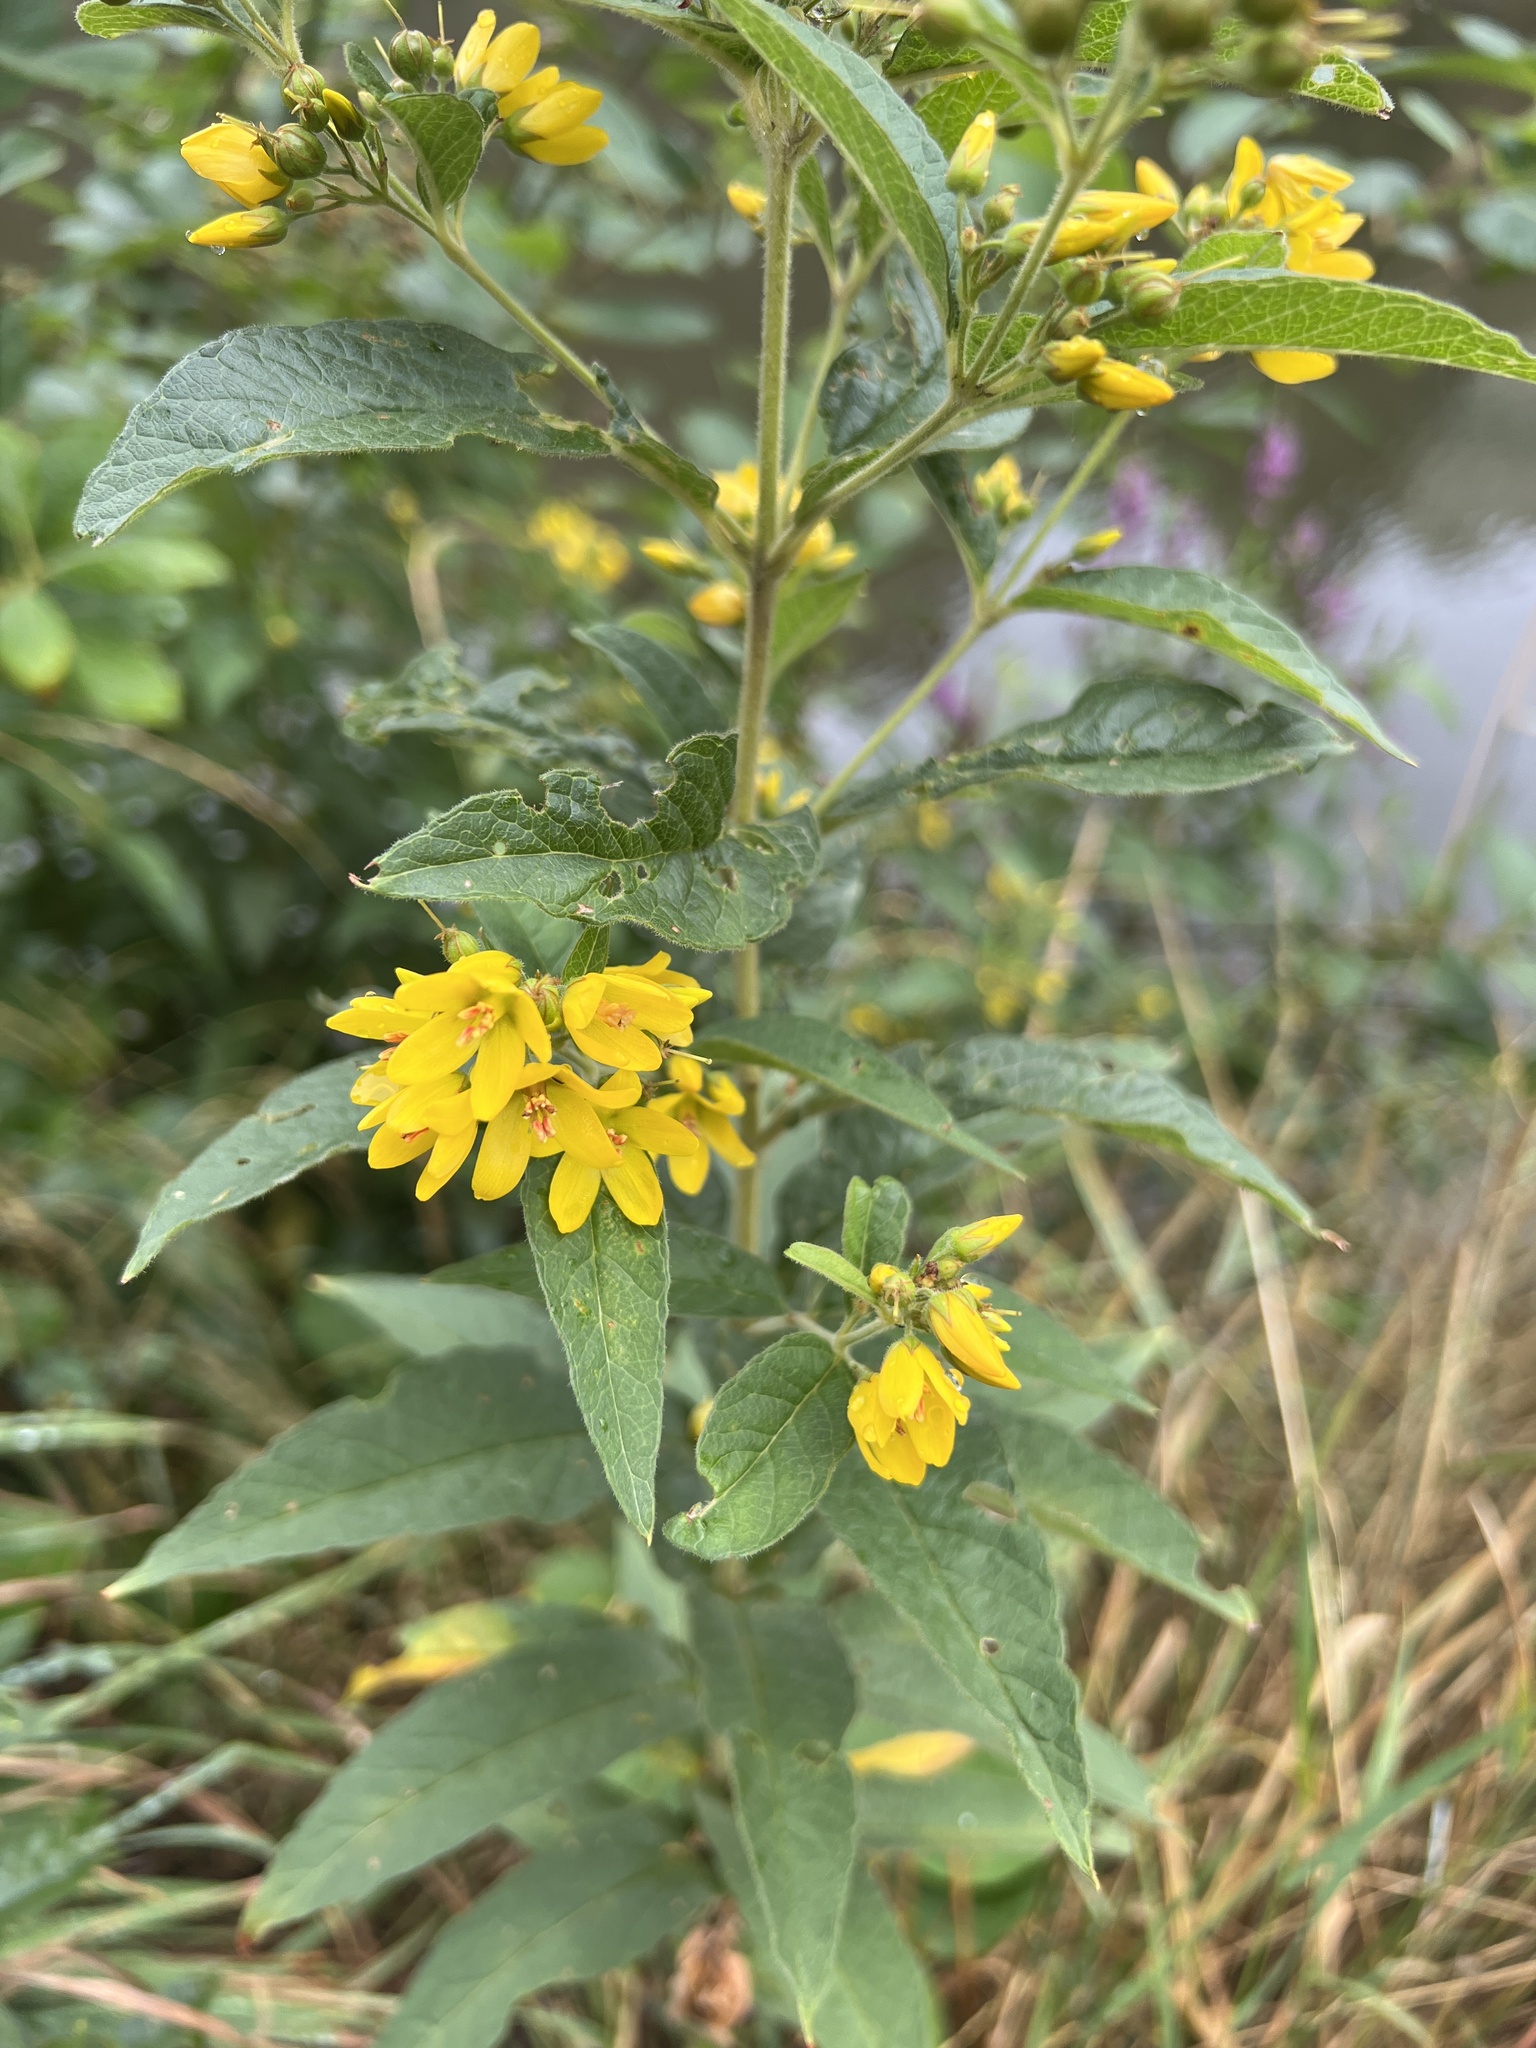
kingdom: Plantae
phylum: Tracheophyta
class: Magnoliopsida
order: Ericales
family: Primulaceae
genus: Lysimachia
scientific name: Lysimachia vulgaris
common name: Yellow loosestrife
